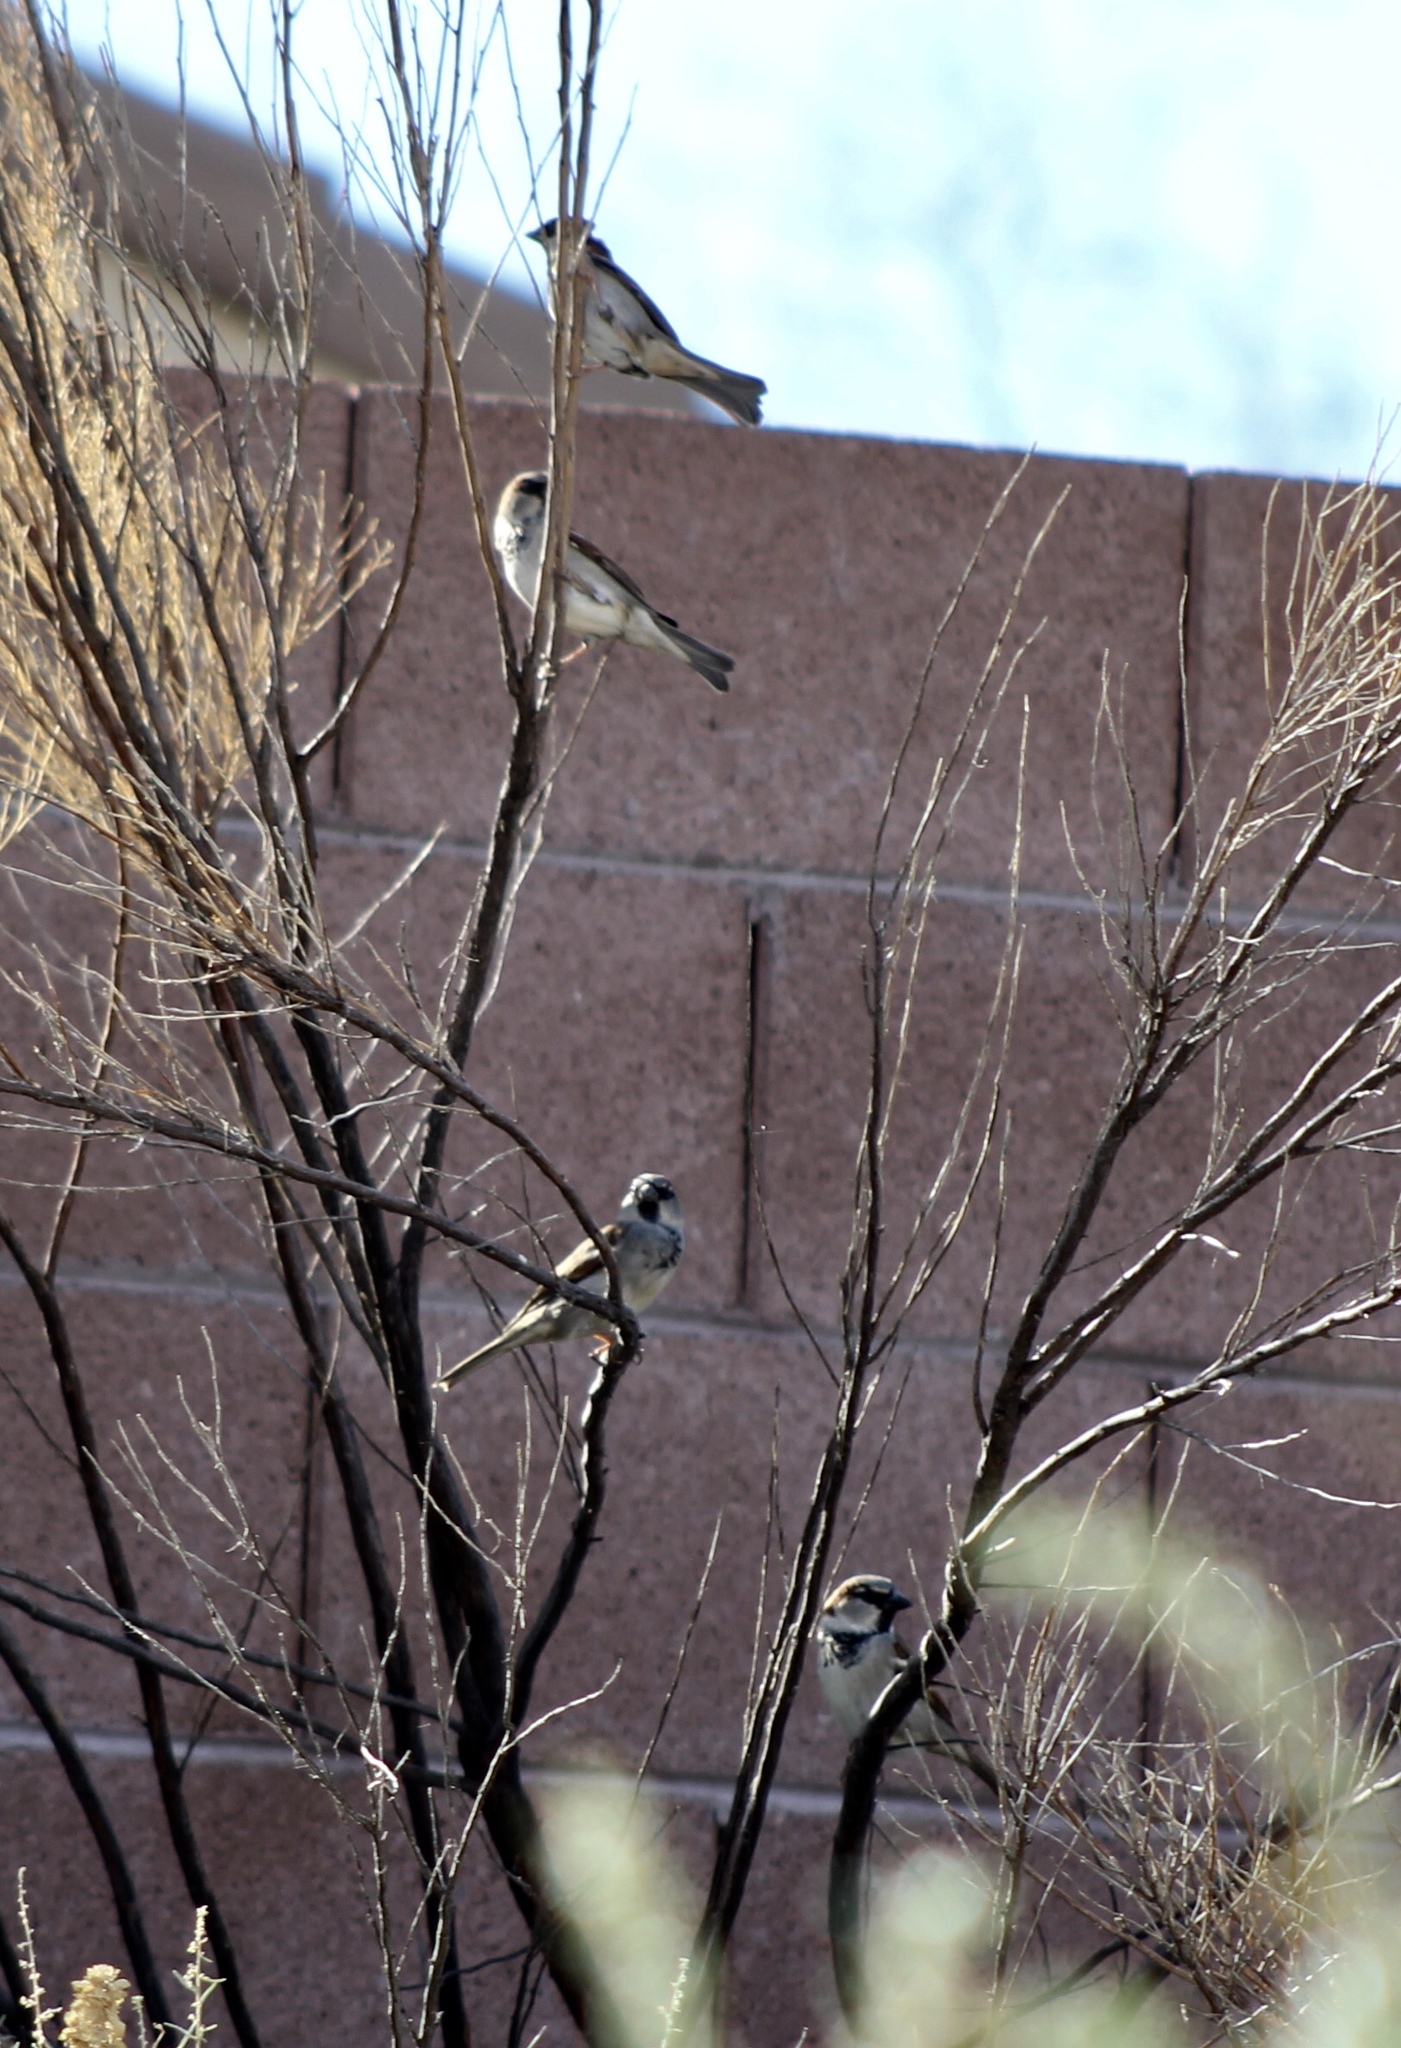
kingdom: Animalia
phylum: Chordata
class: Aves
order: Passeriformes
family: Passeridae
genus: Passer
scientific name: Passer domesticus
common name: House sparrow
